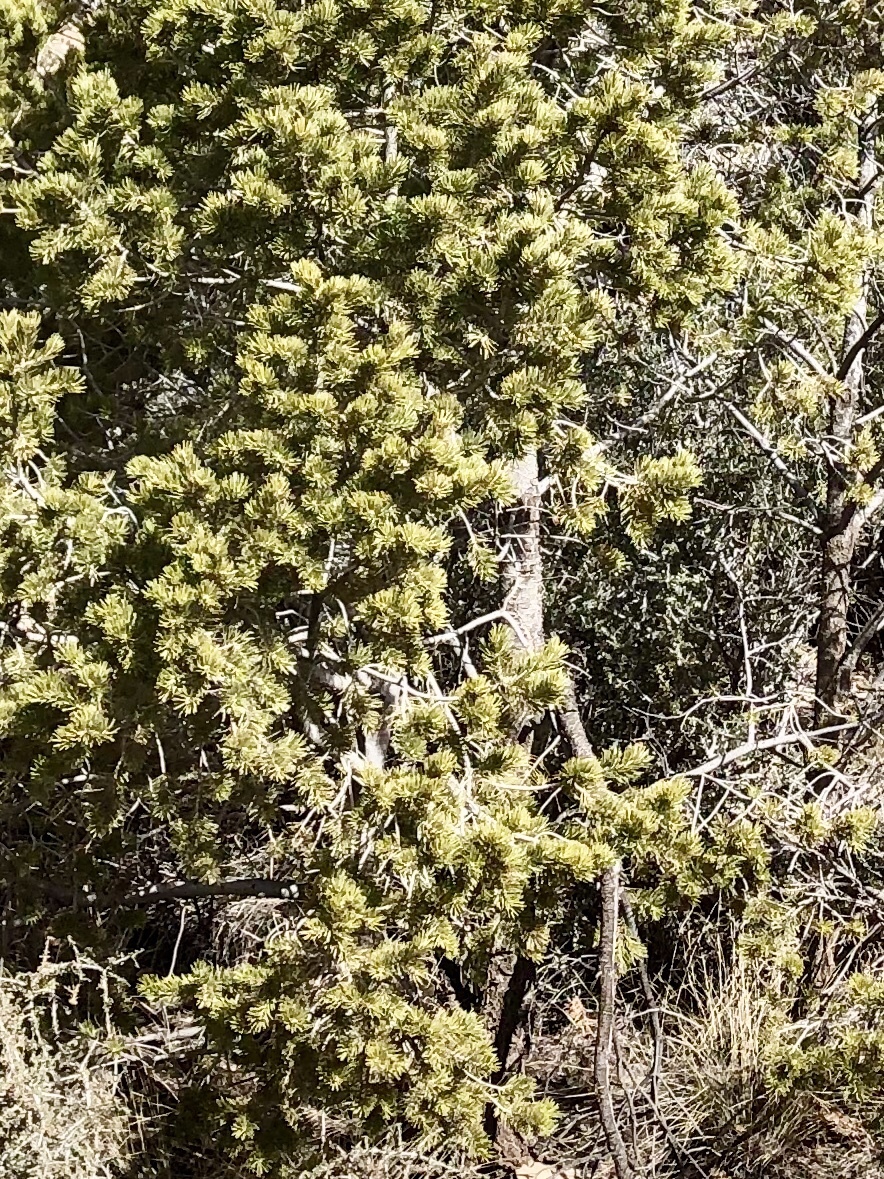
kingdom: Plantae
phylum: Tracheophyta
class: Pinopsida
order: Pinales
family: Pinaceae
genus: Pinus
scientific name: Pinus edulis
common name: Colorado pinyon
